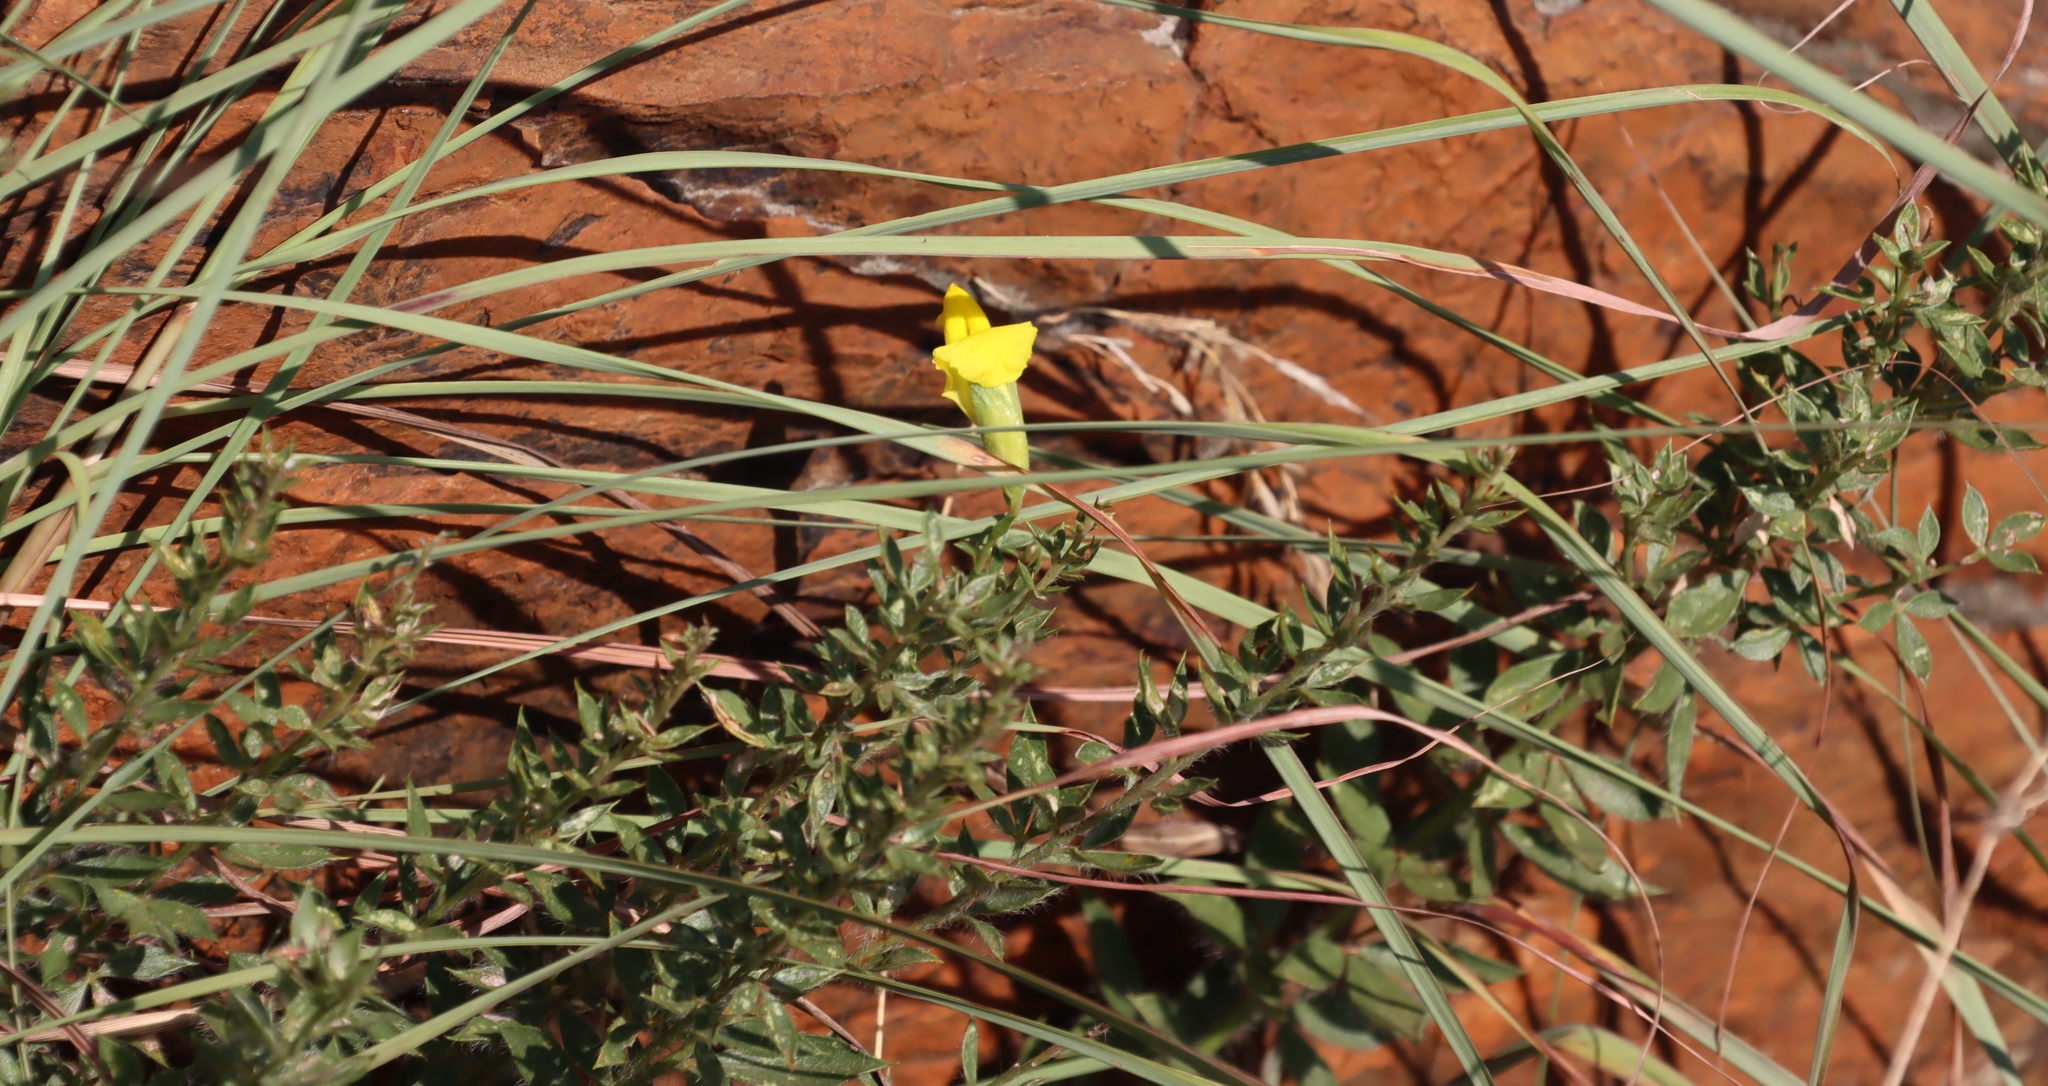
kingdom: Plantae
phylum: Tracheophyta
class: Magnoliopsida
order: Fabales
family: Fabaceae
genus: Pearsonia
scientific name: Pearsonia aristata
